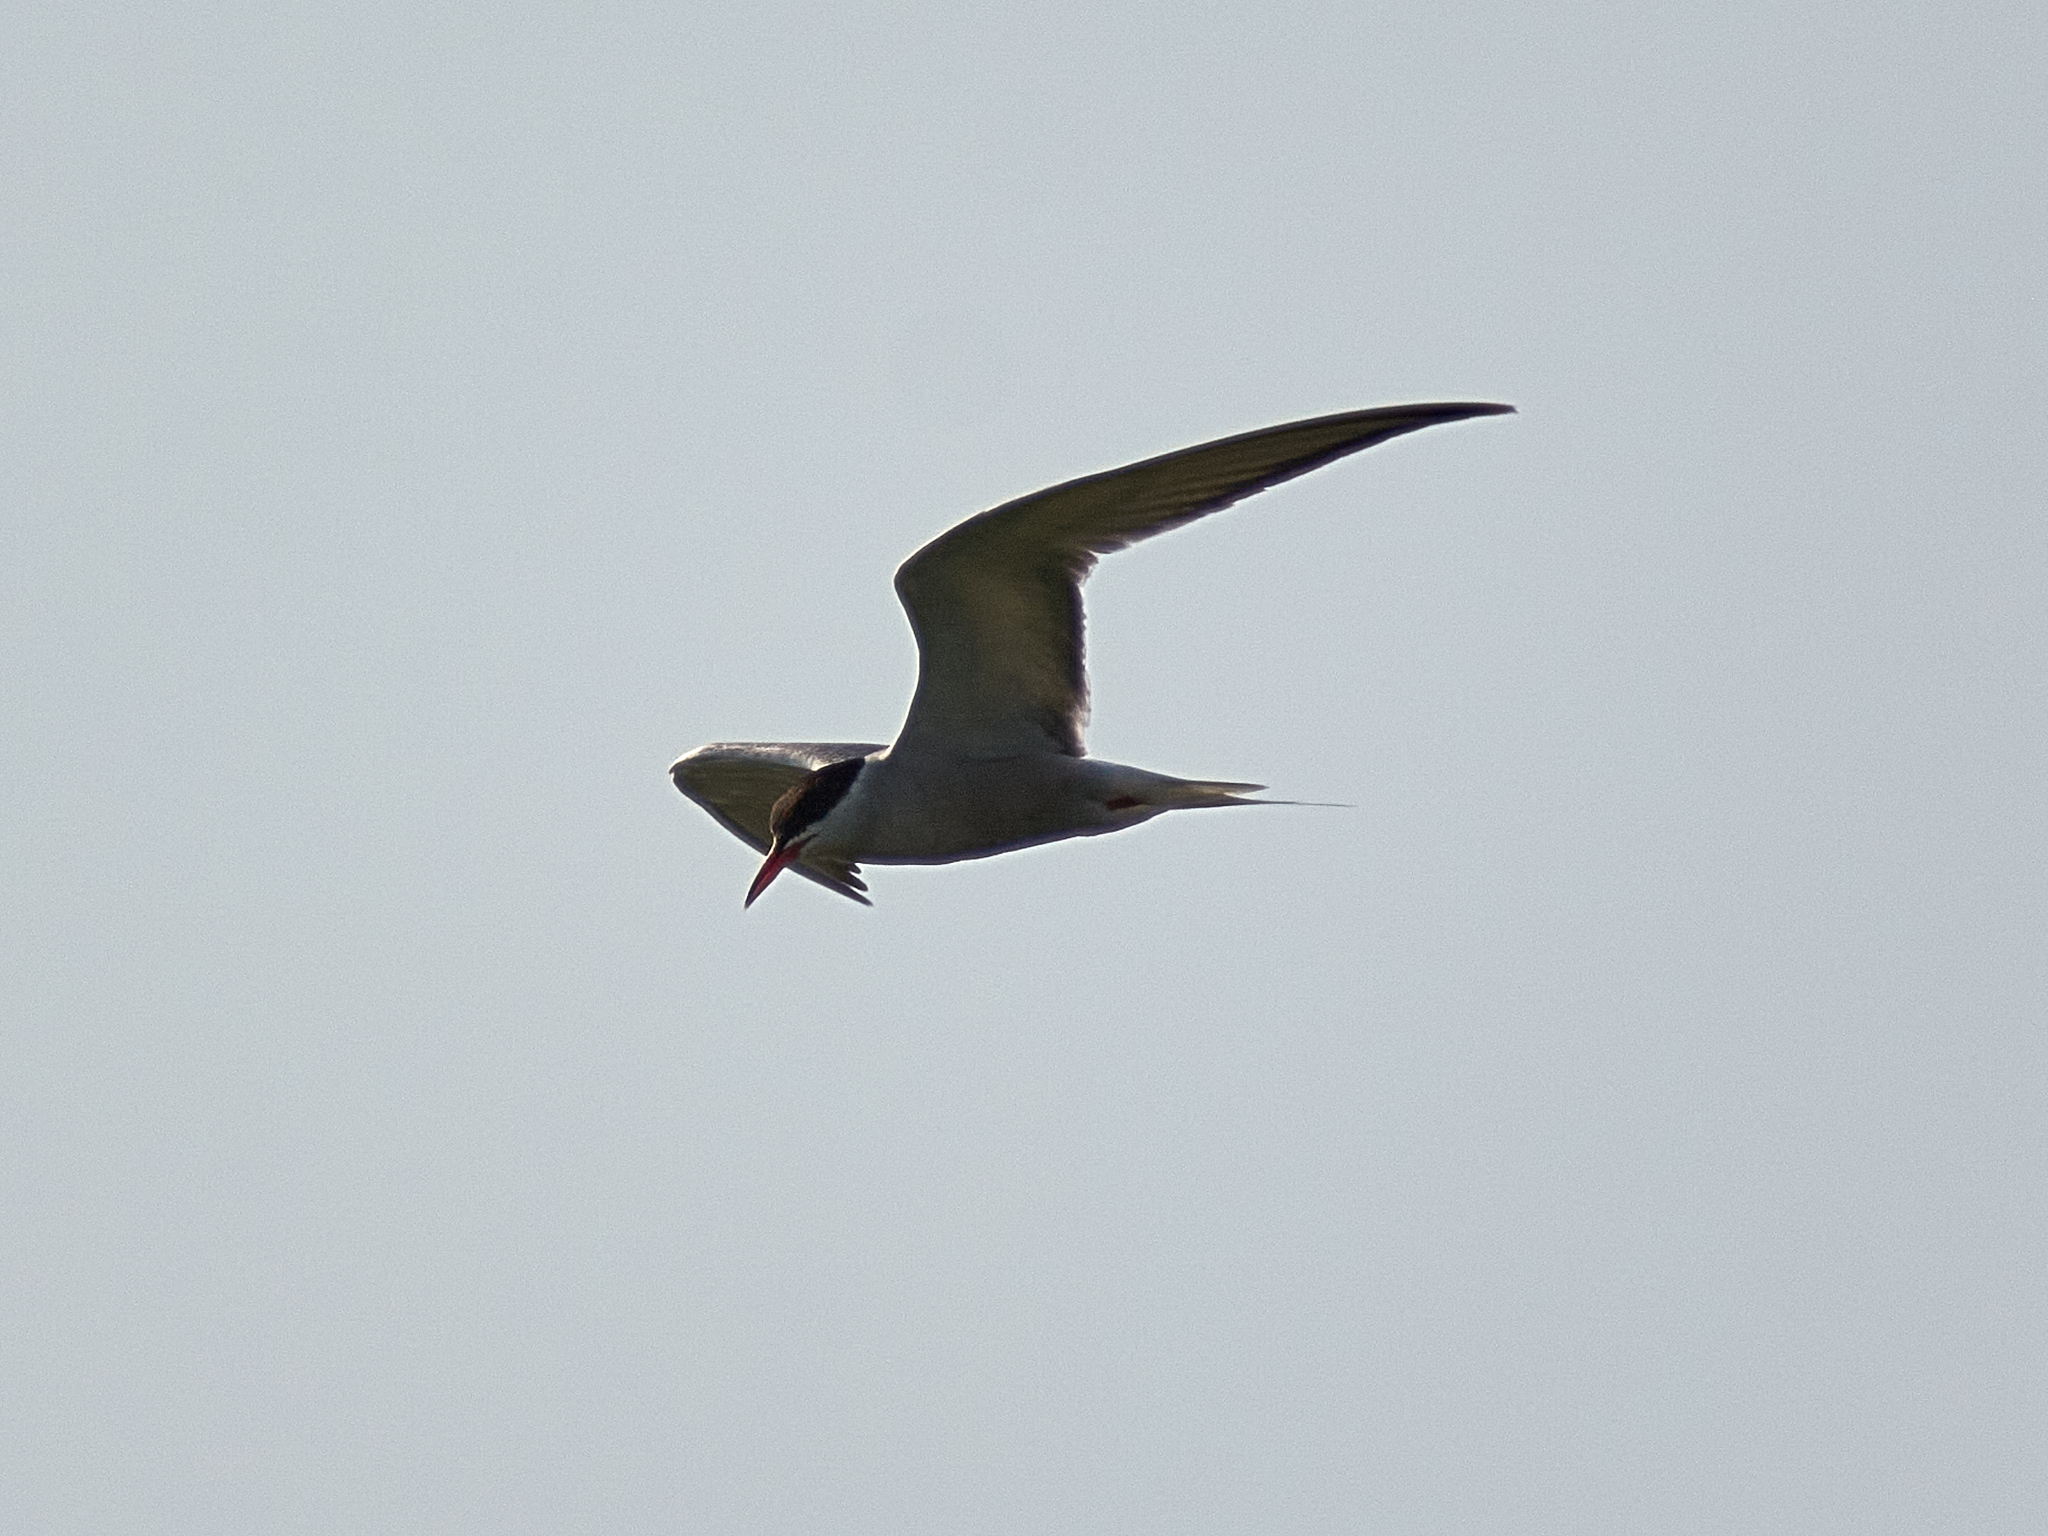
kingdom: Animalia
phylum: Chordata
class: Aves
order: Charadriiformes
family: Laridae
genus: Sterna
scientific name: Sterna hirundo
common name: Common tern
